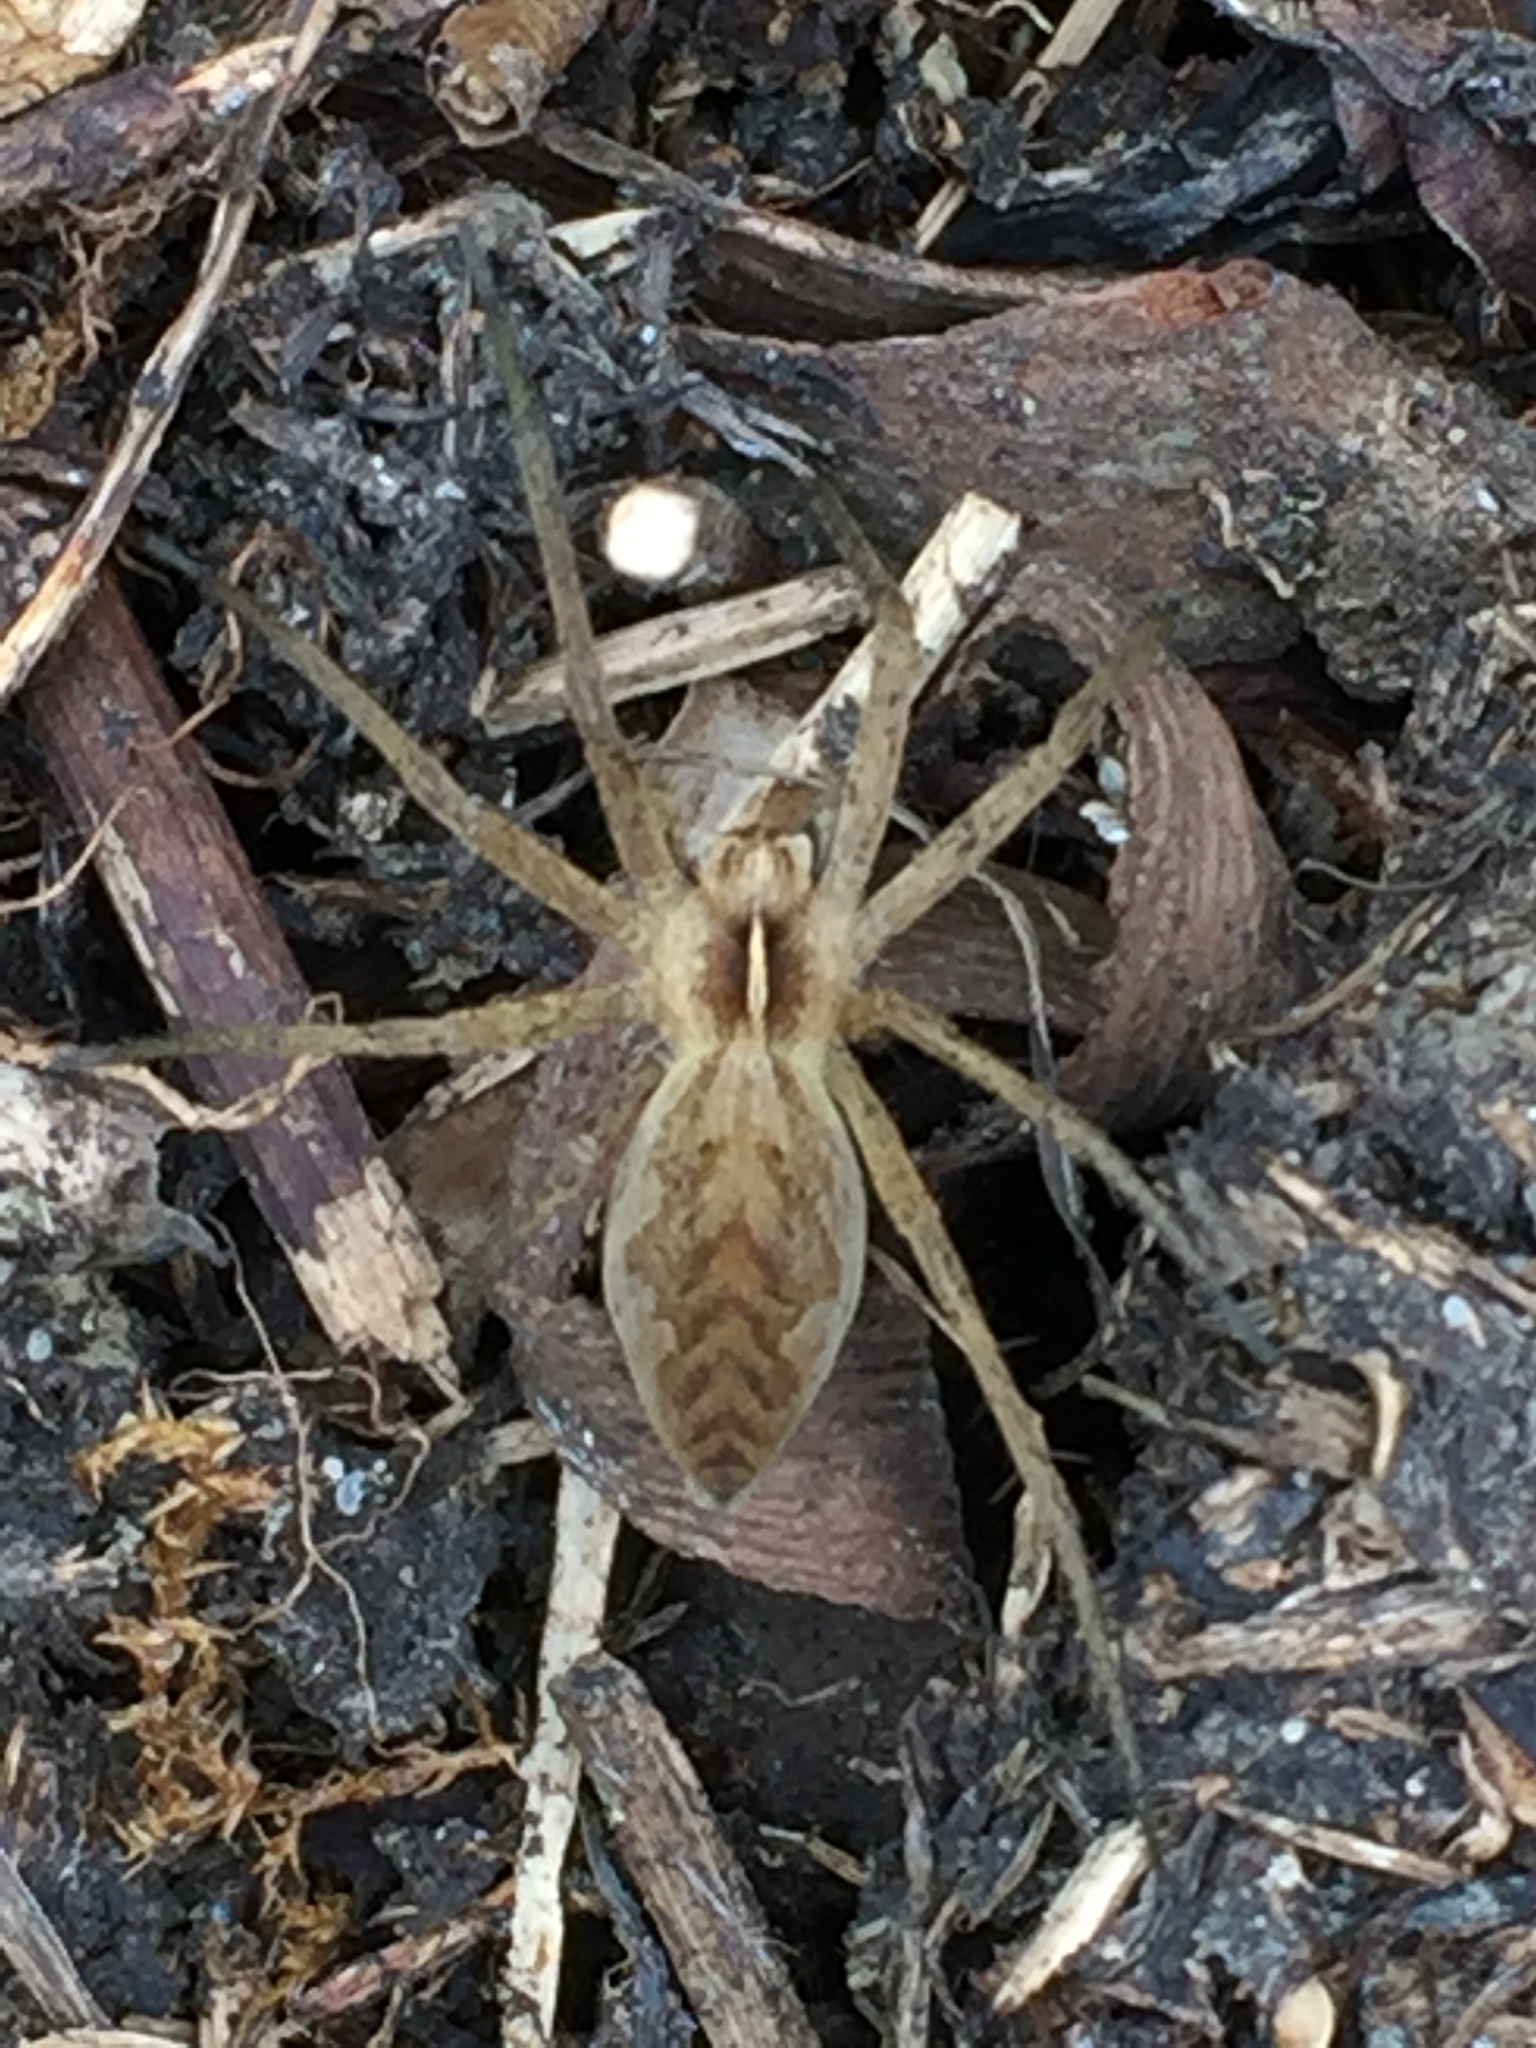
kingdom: Animalia
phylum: Arthropoda
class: Arachnida
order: Araneae
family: Pisauridae
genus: Pisaura
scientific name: Pisaura mirabilis
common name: Tent spider
